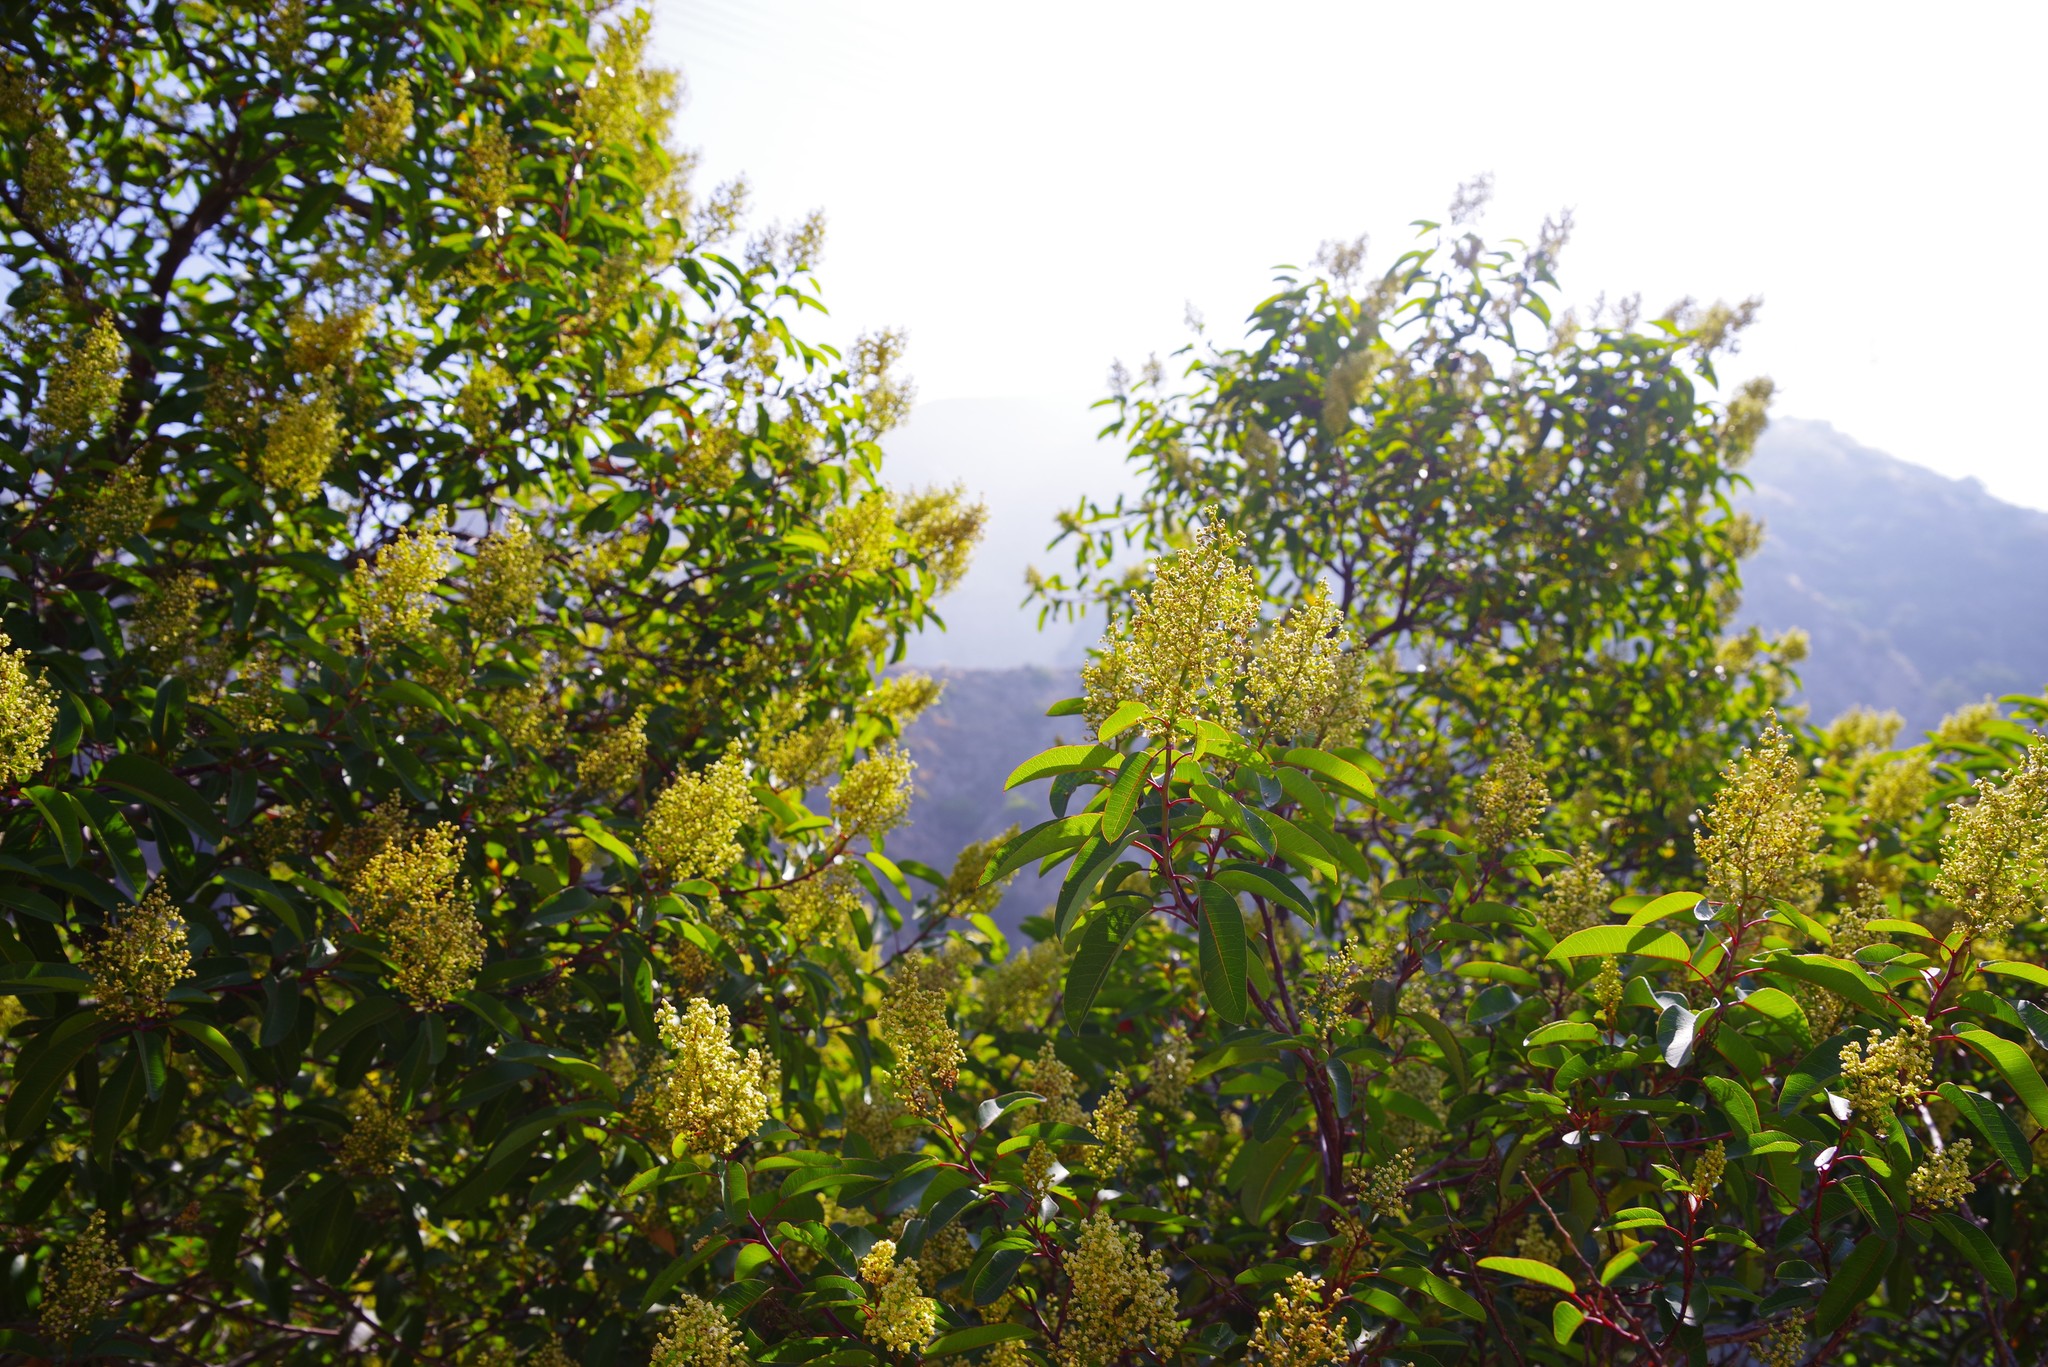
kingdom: Plantae
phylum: Tracheophyta
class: Magnoliopsida
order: Sapindales
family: Anacardiaceae
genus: Malosma
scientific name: Malosma laurina
